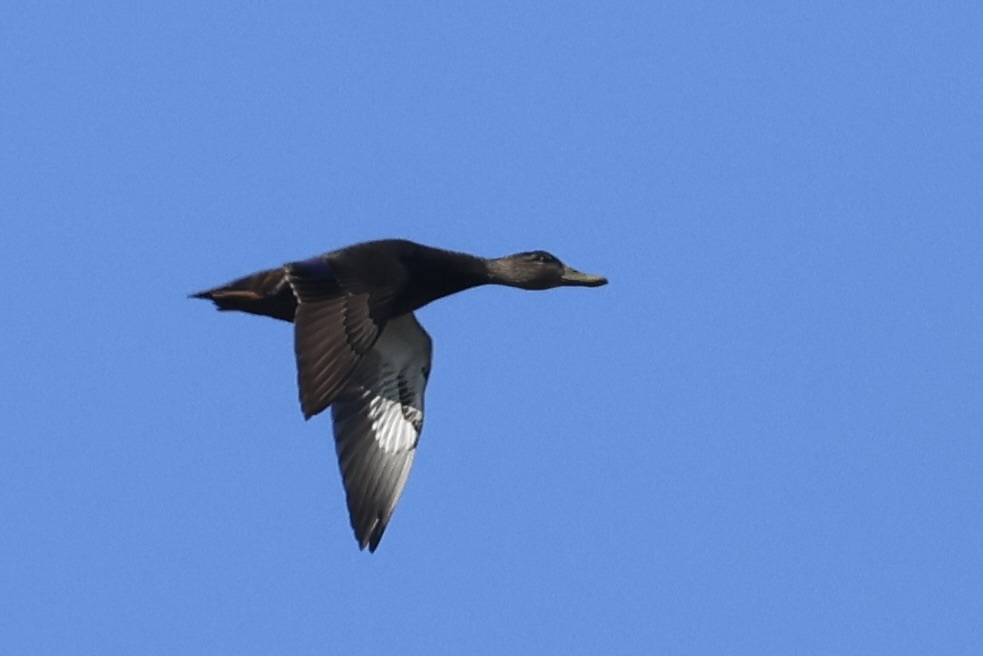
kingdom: Animalia
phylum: Chordata
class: Aves
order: Anseriformes
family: Anatidae
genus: Anas
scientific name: Anas rubripes
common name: American black duck
